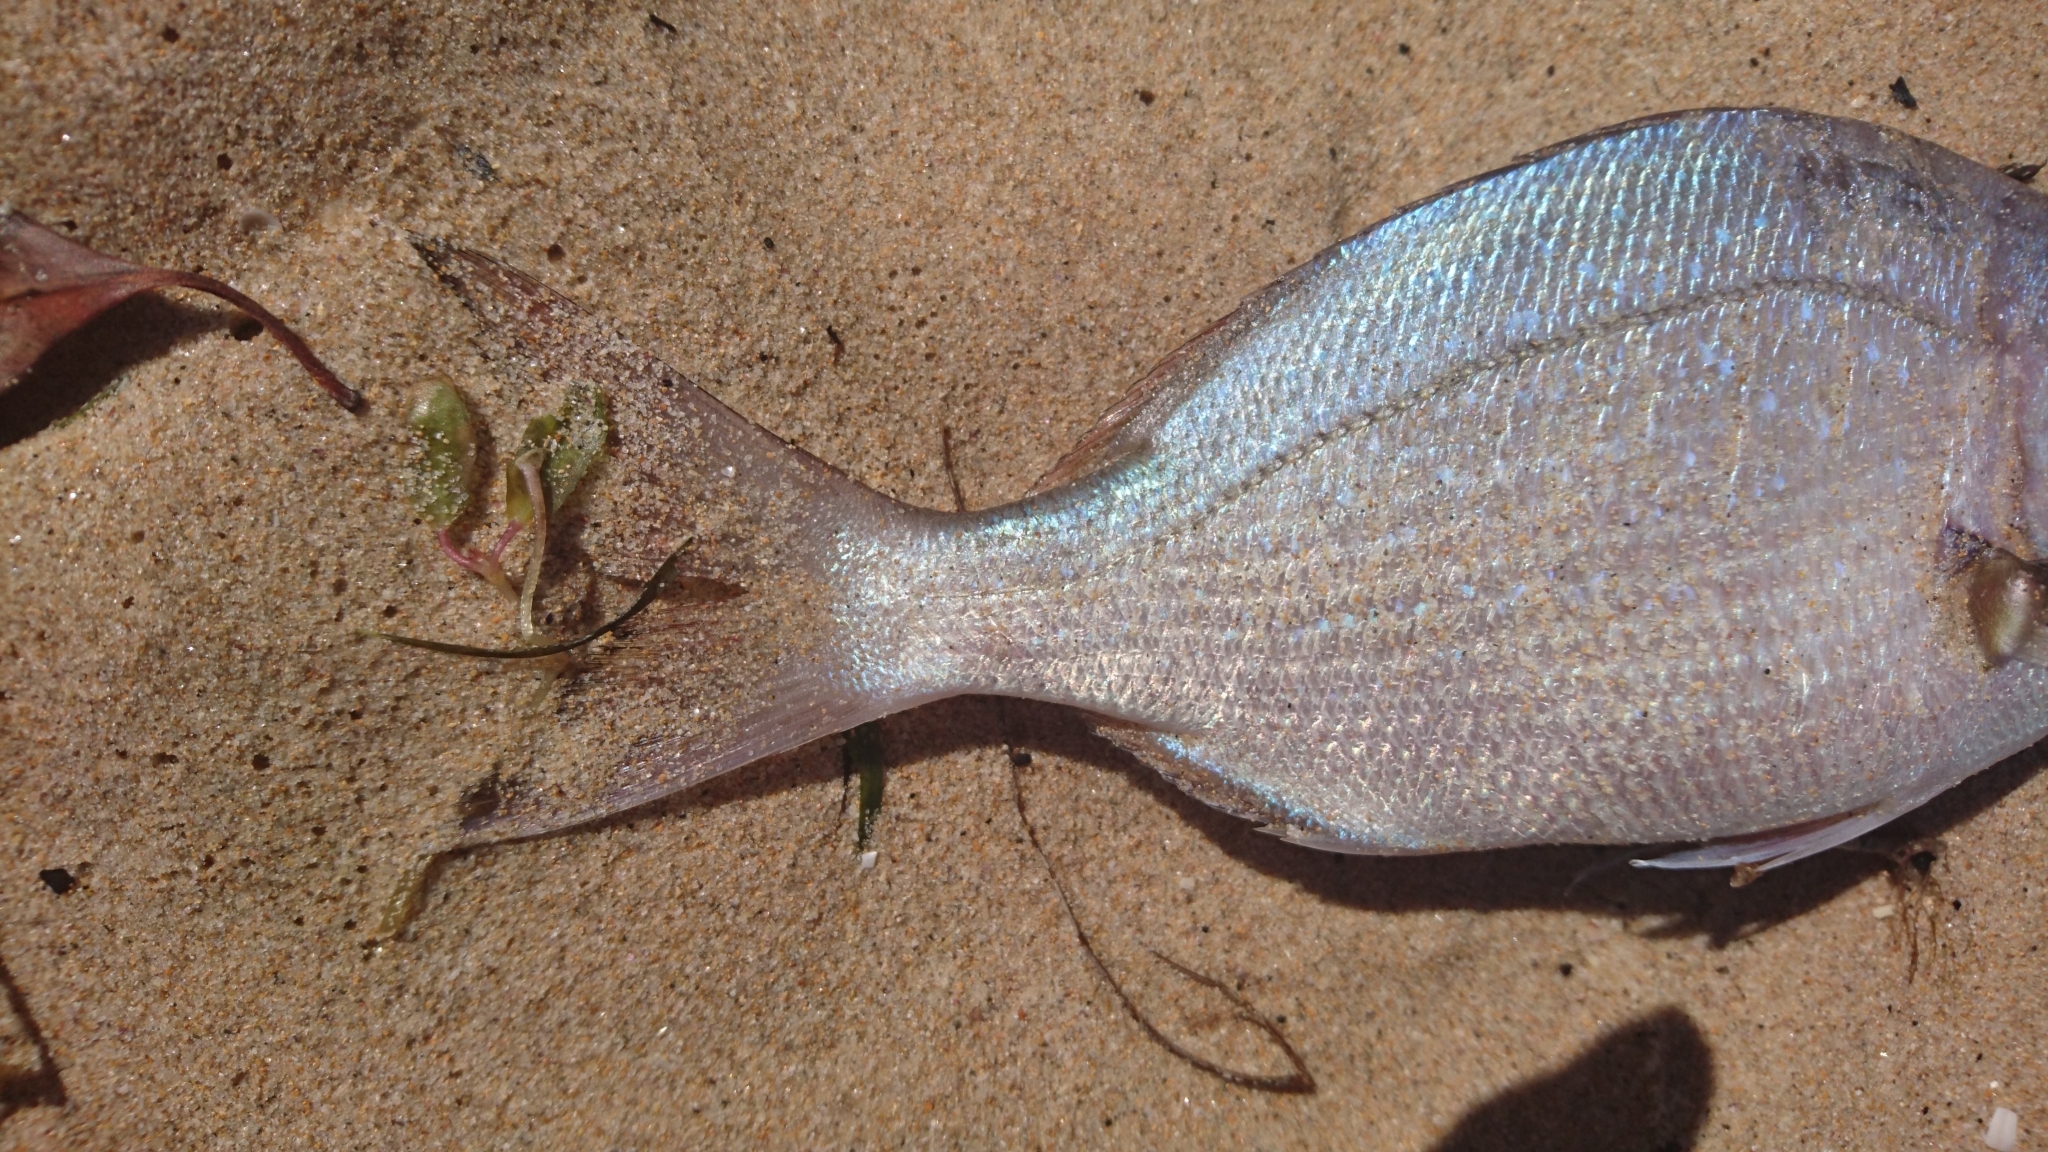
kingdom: Animalia
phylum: Chordata
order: Perciformes
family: Sparidae
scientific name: Sparidae
